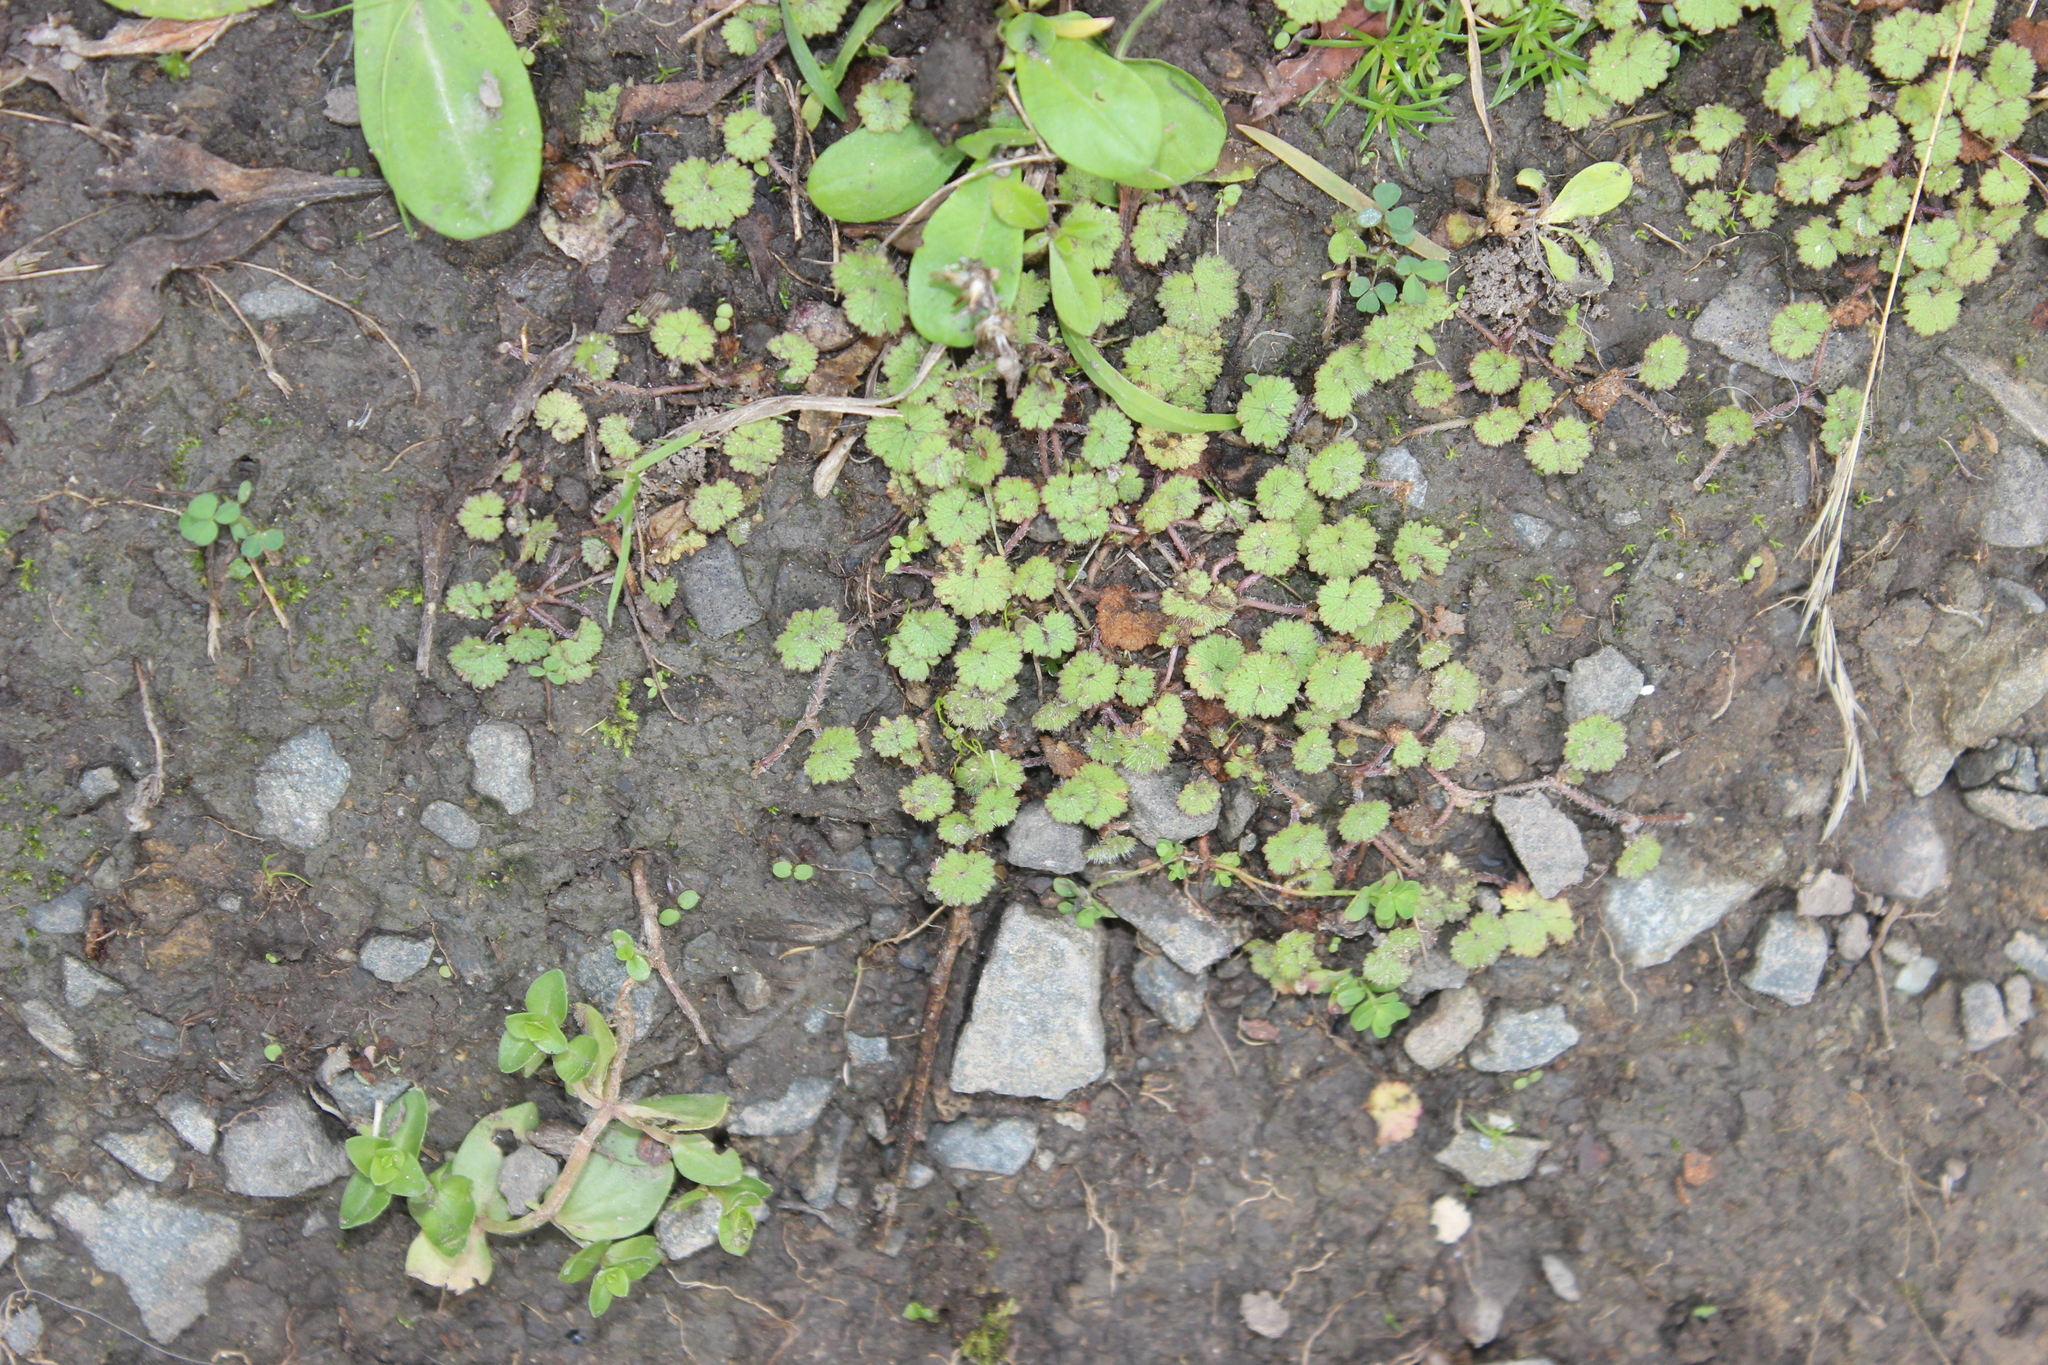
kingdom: Plantae
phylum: Tracheophyta
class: Magnoliopsida
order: Apiales
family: Araliaceae
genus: Hydrocotyle
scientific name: Hydrocotyle moschata
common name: Hairy pennywort
